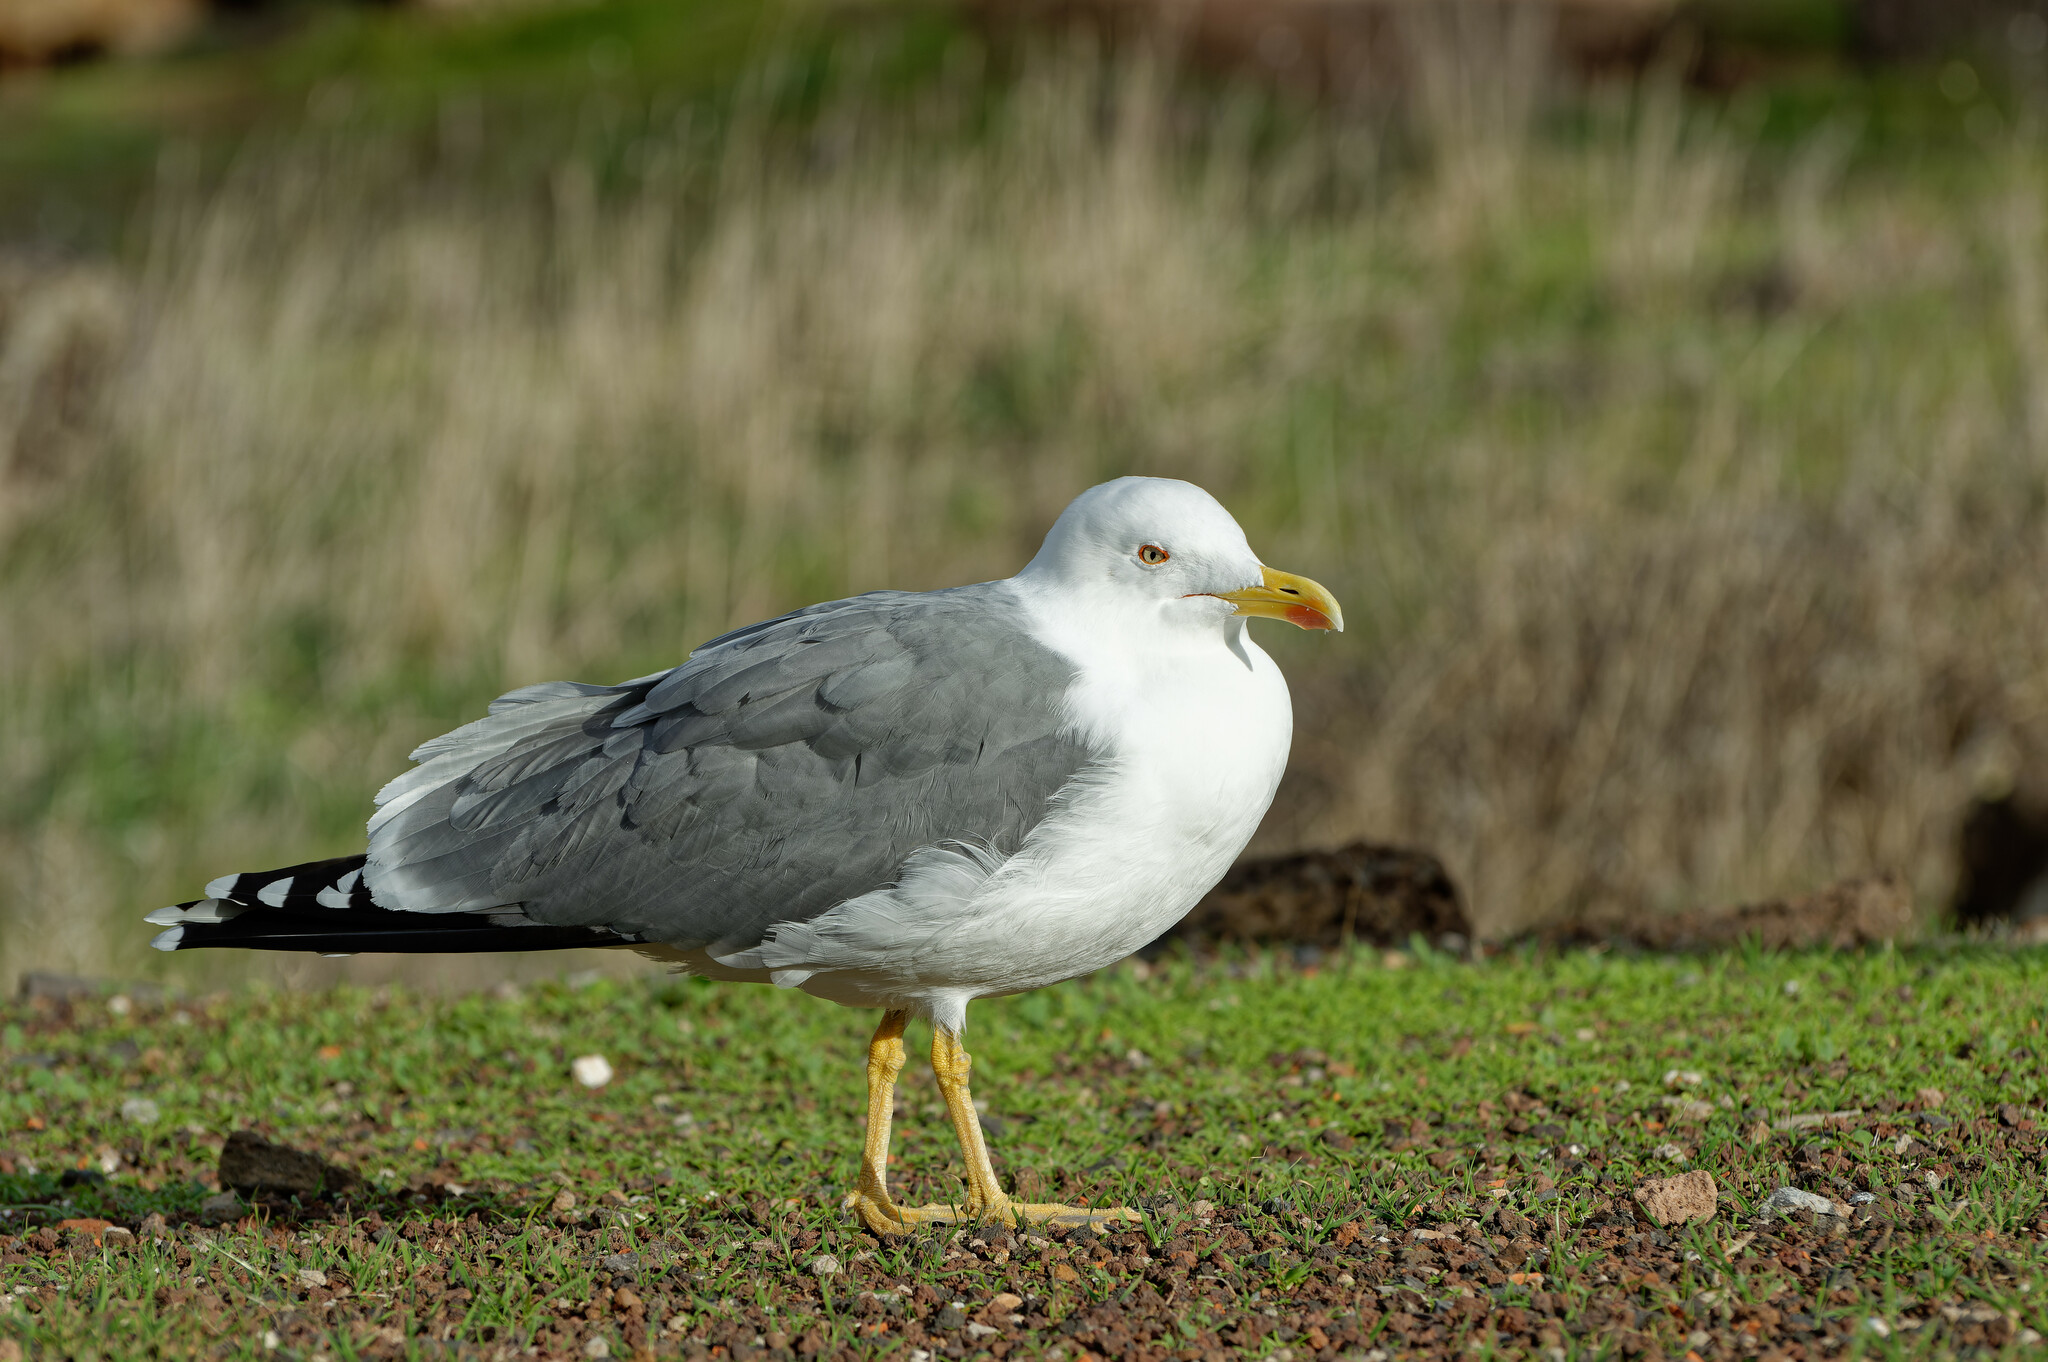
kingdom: Animalia
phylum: Chordata
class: Aves
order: Charadriiformes
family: Laridae
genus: Larus
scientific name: Larus michahellis
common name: Yellow-legged gull
